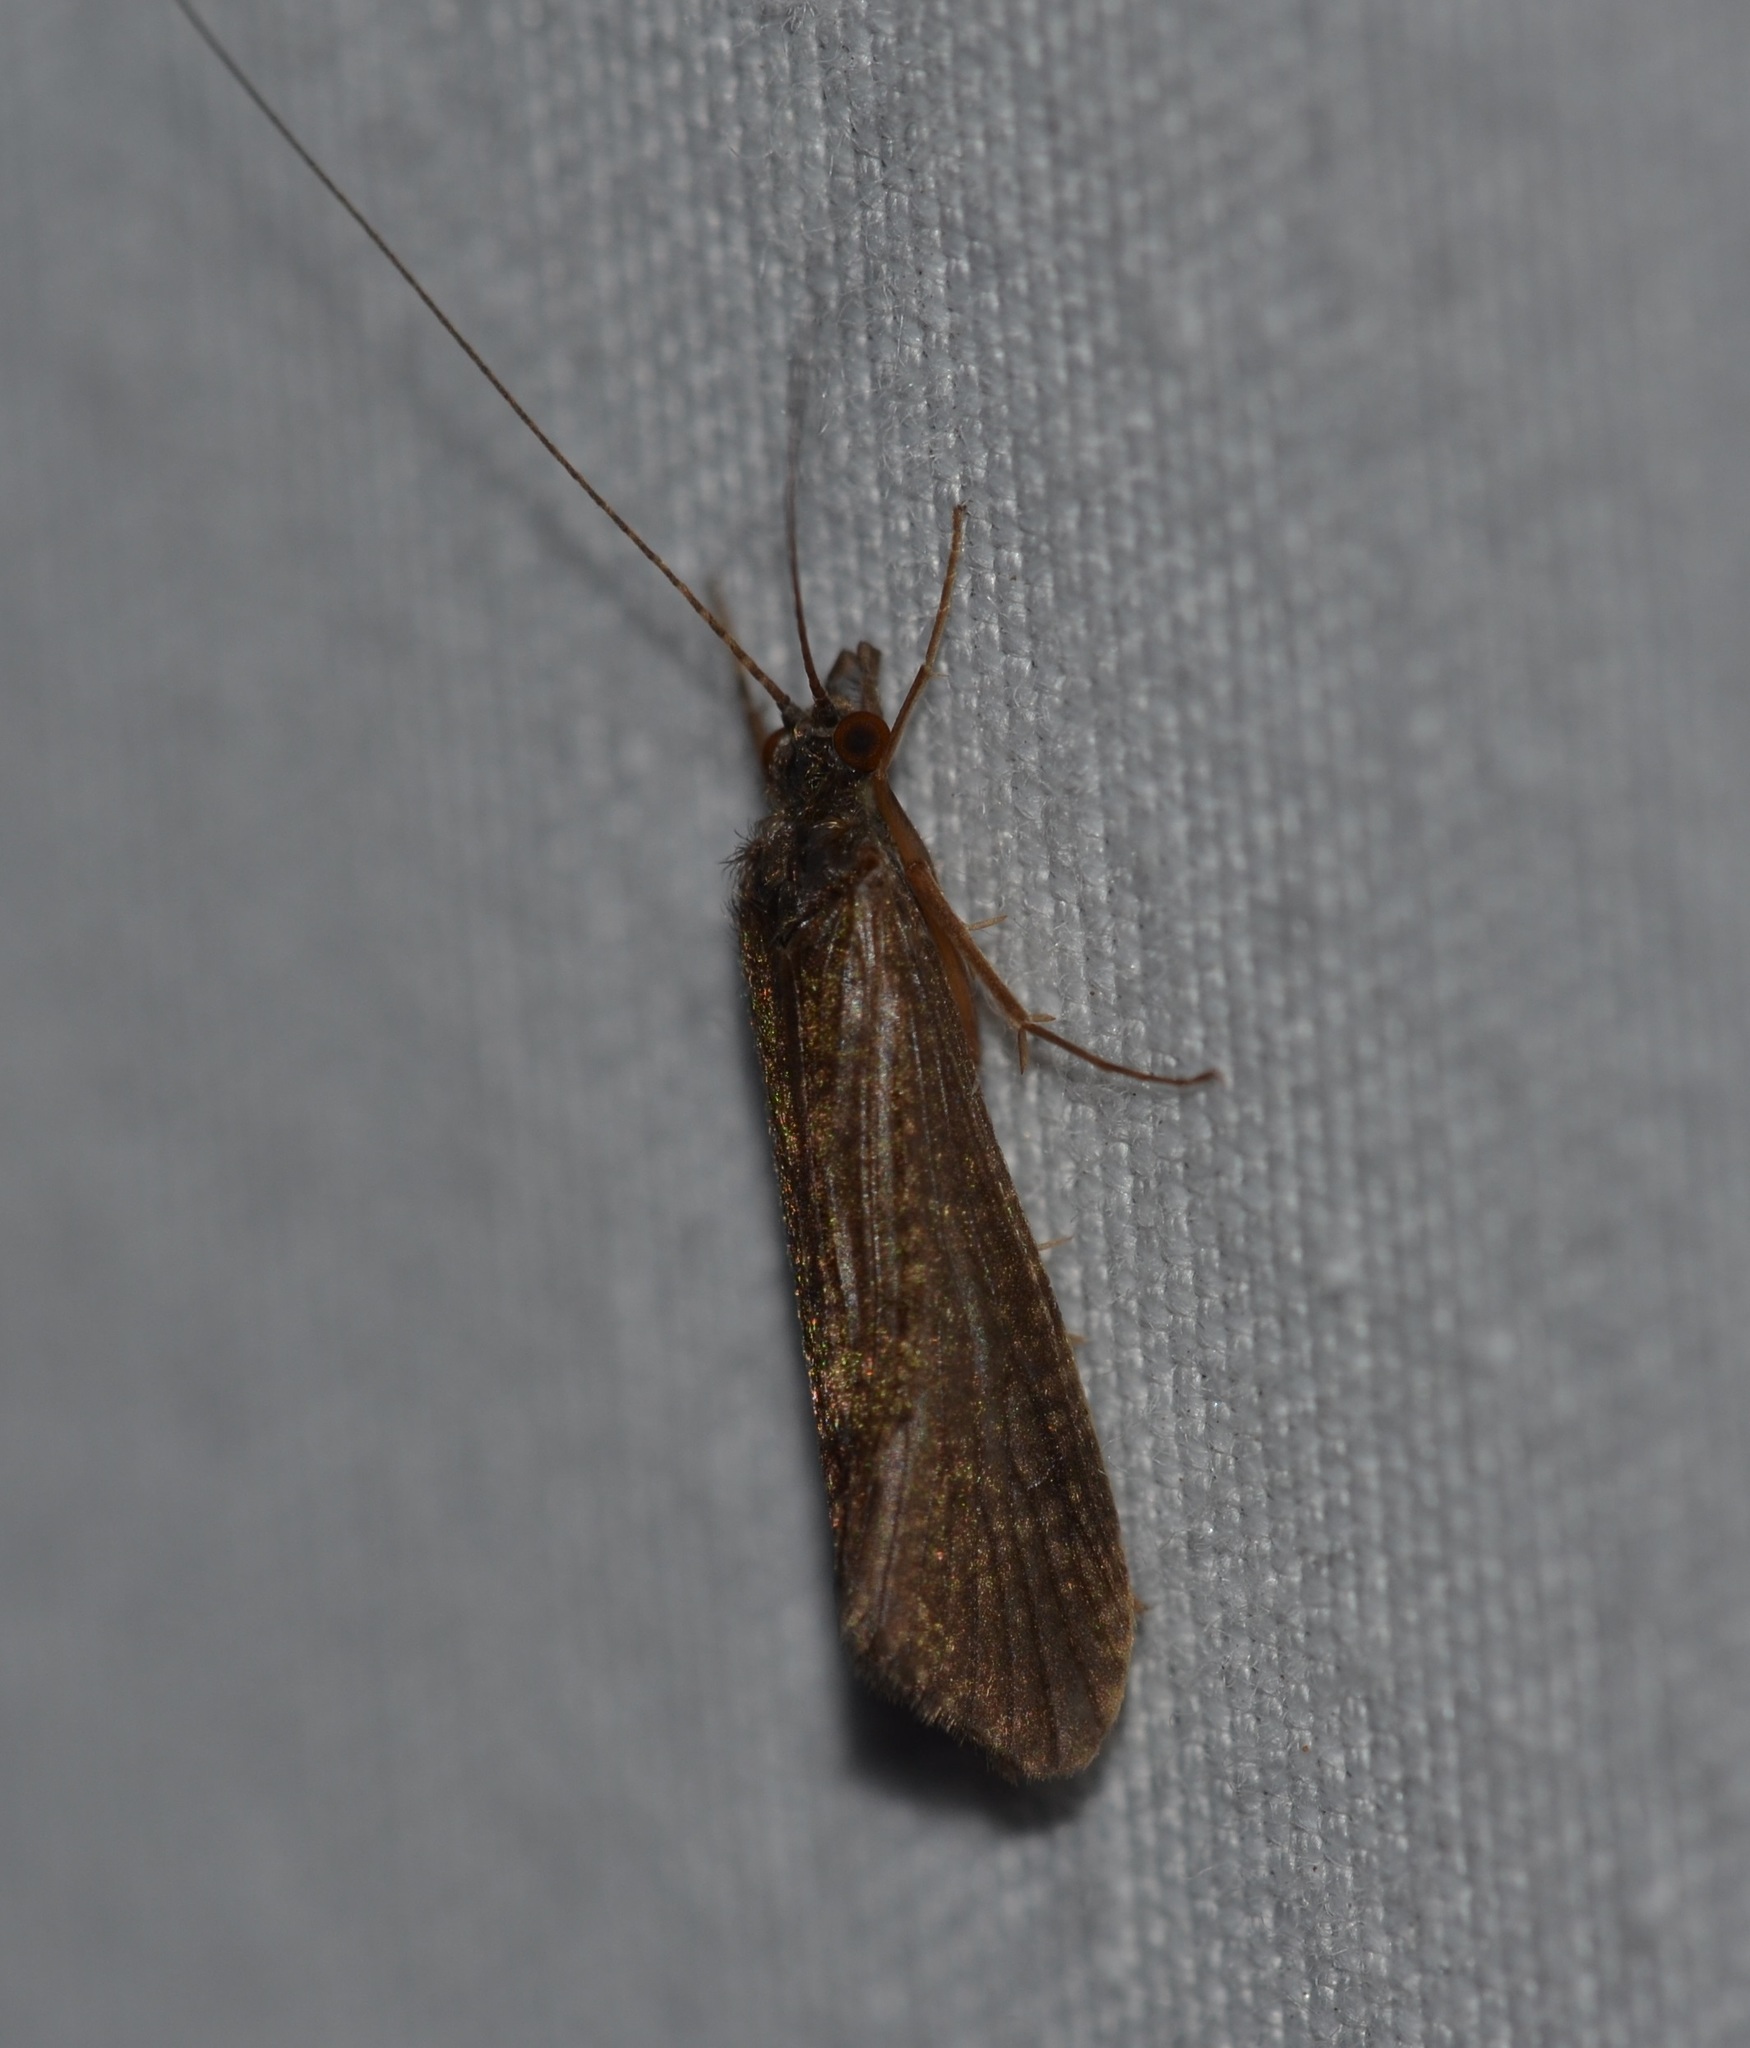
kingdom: Animalia
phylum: Arthropoda
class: Insecta
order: Trichoptera
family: Hydropsychidae
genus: Cheumatopsyche
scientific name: Cheumatopsyche analis
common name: Net-spinning caddisfly
